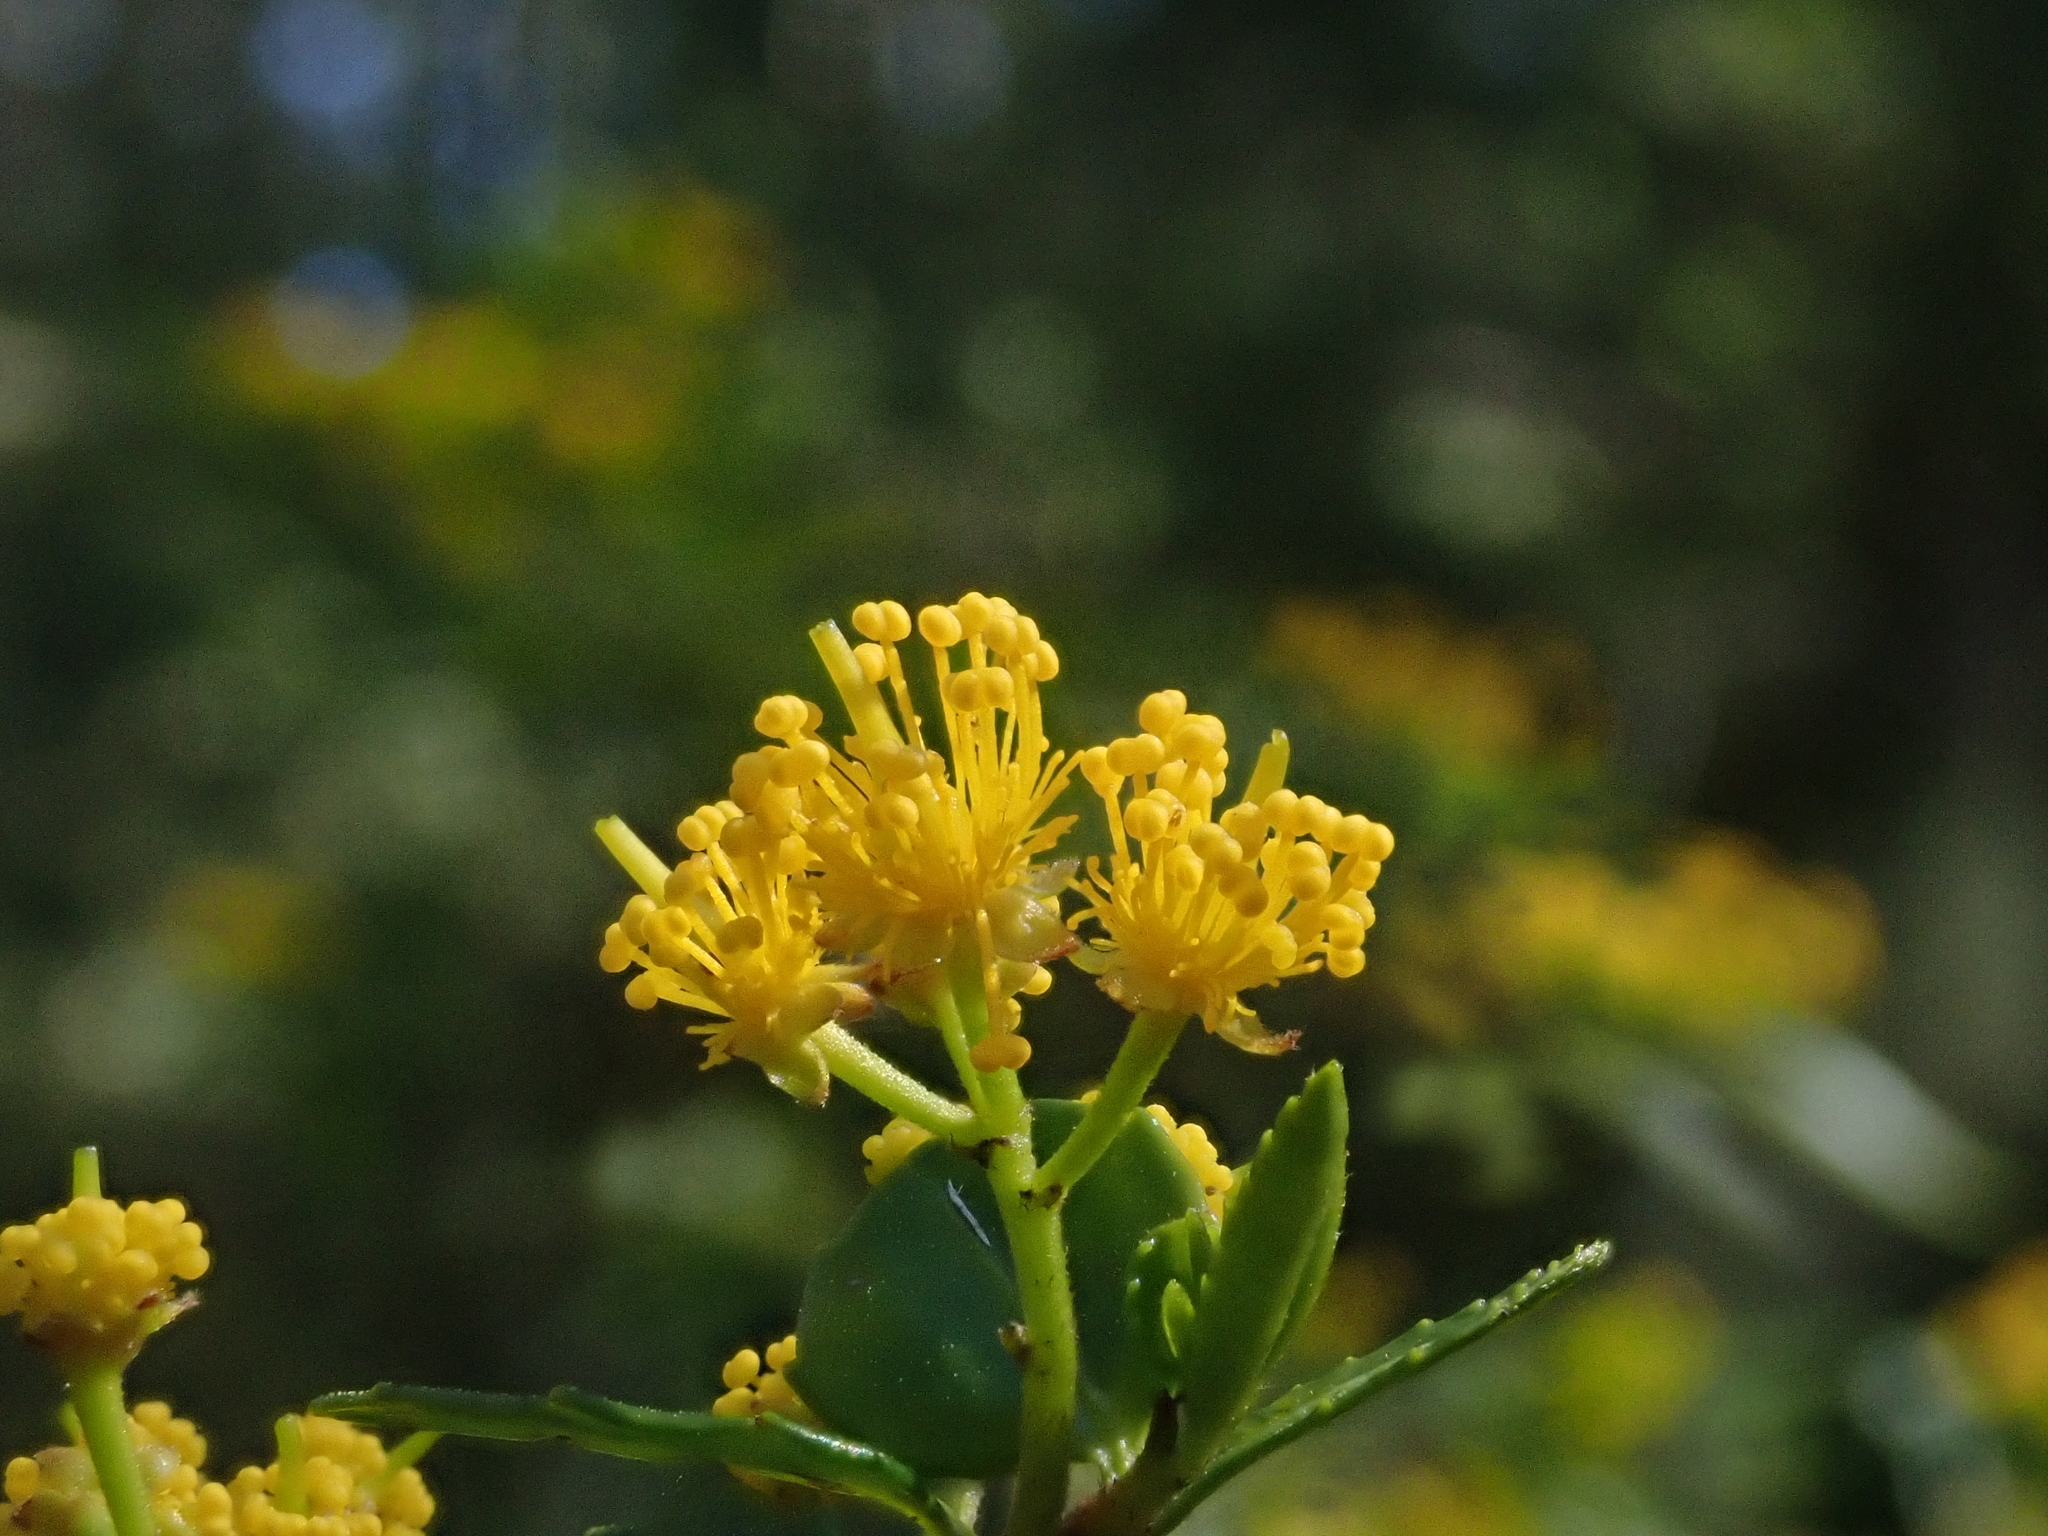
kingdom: Plantae
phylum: Tracheophyta
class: Magnoliopsida
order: Malpighiales
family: Salicaceae
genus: Azara
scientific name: Azara lanceolata
